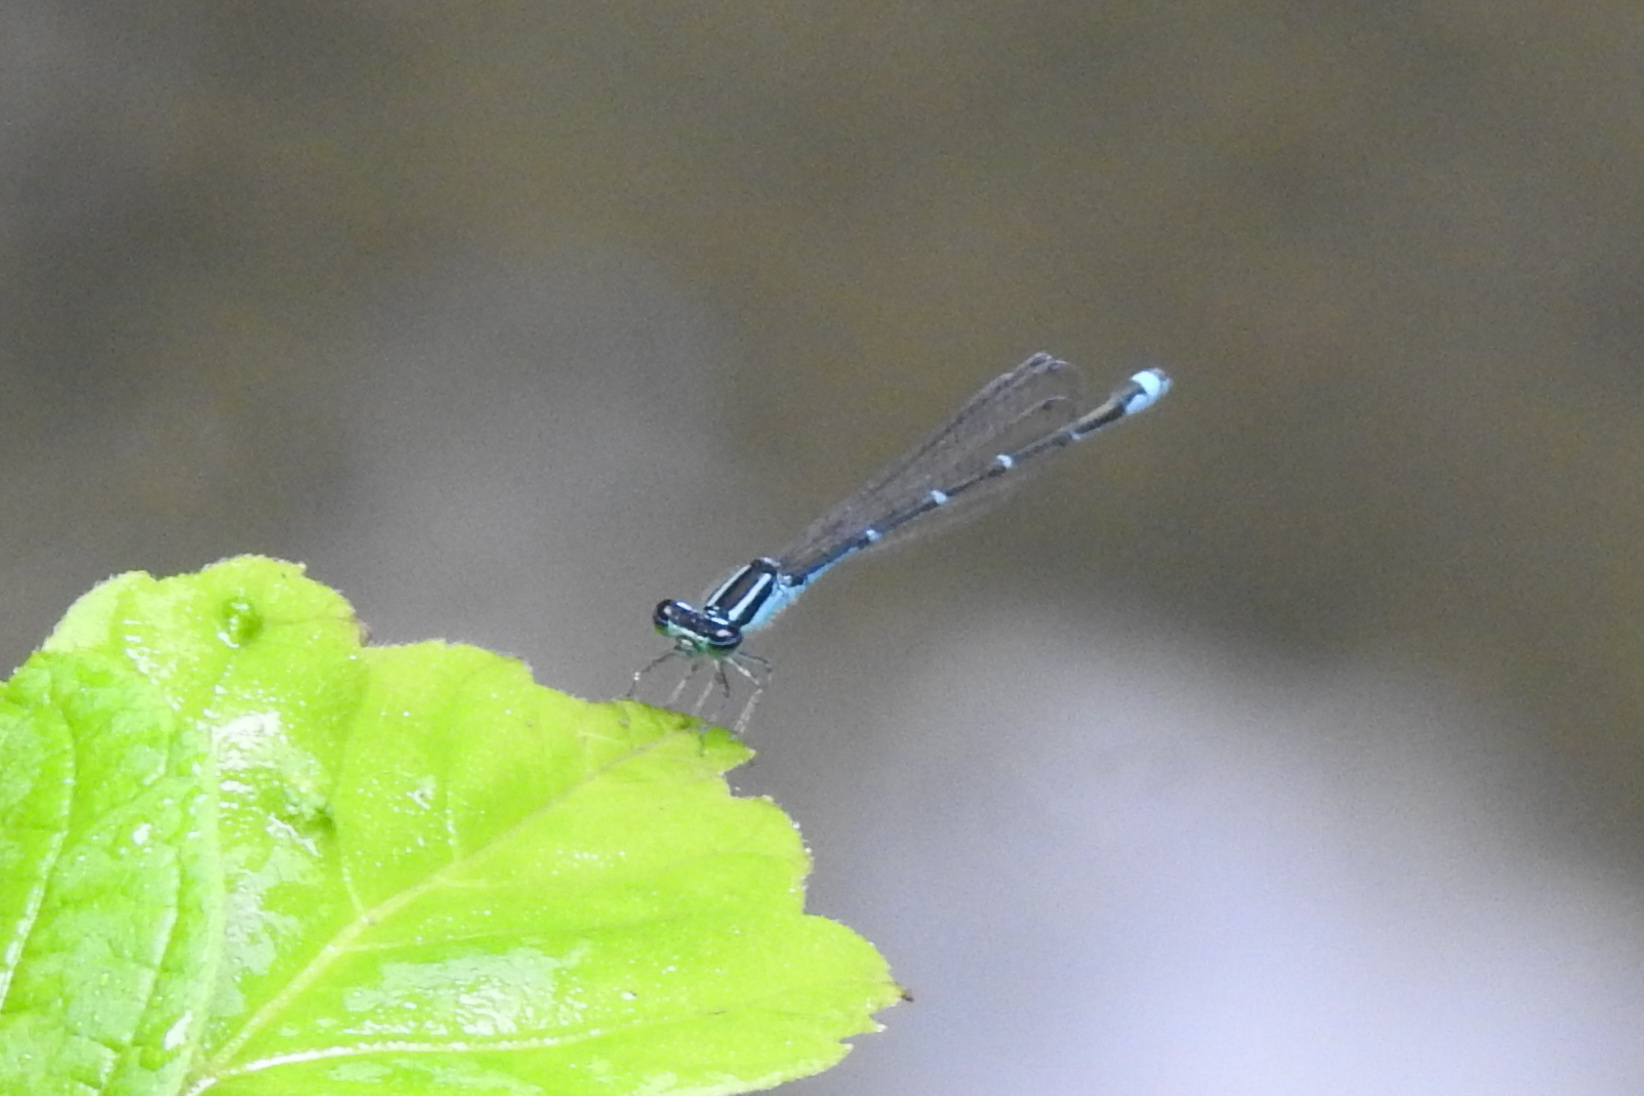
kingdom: Animalia
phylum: Arthropoda
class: Insecta
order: Odonata
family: Coenagrionidae
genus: Enallagma
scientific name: Enallagma exsulans
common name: Stream bluet
